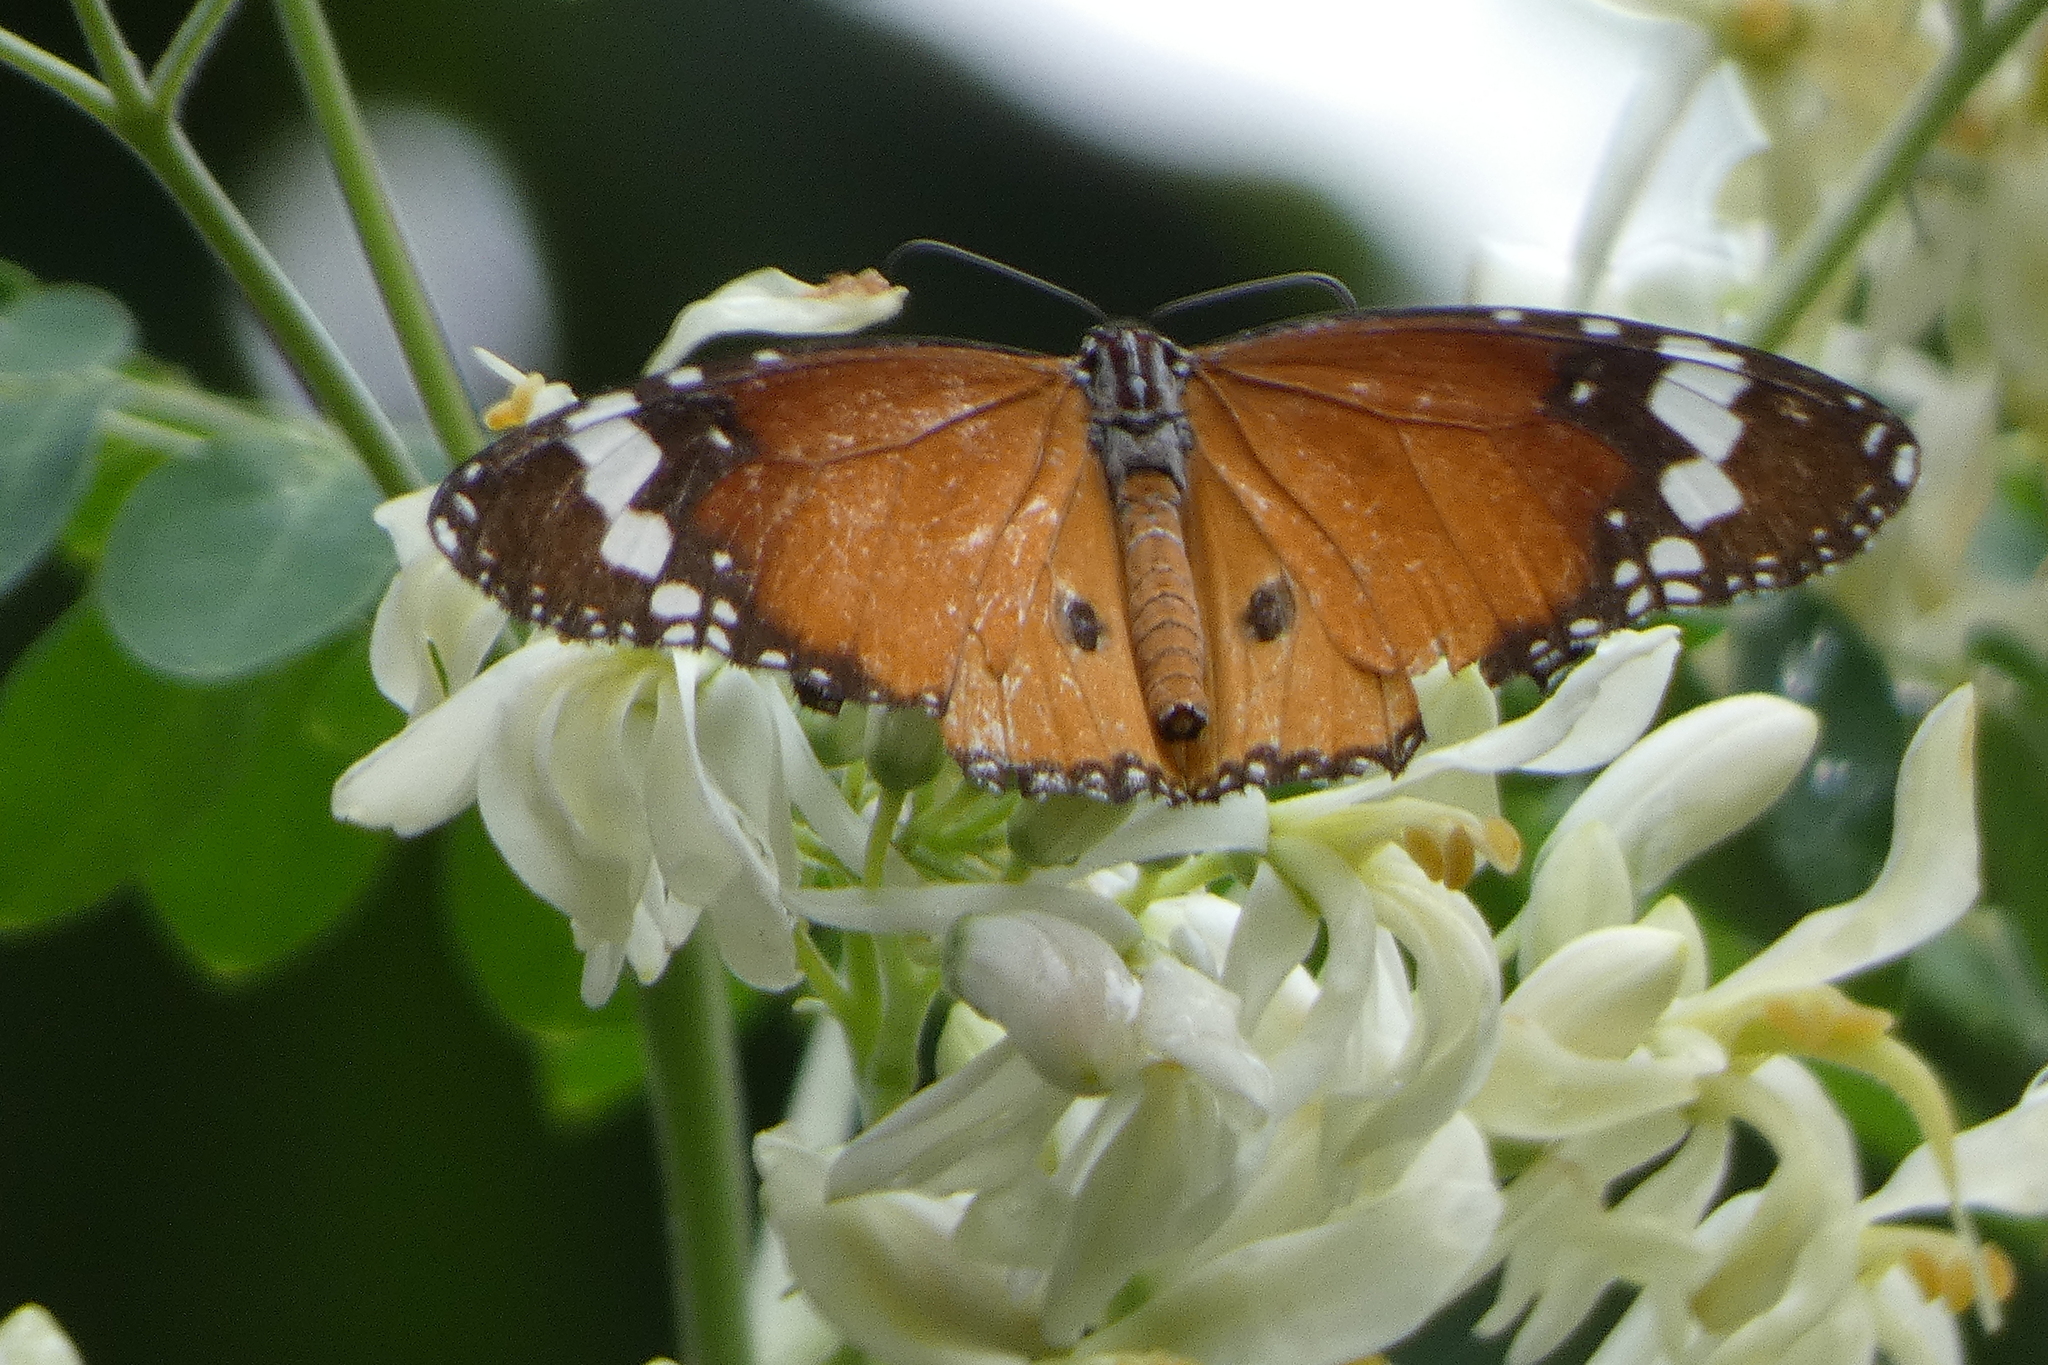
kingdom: Animalia
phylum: Arthropoda
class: Insecta
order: Lepidoptera
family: Nymphalidae
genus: Danaus
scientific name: Danaus chrysippus
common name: Plain tiger
